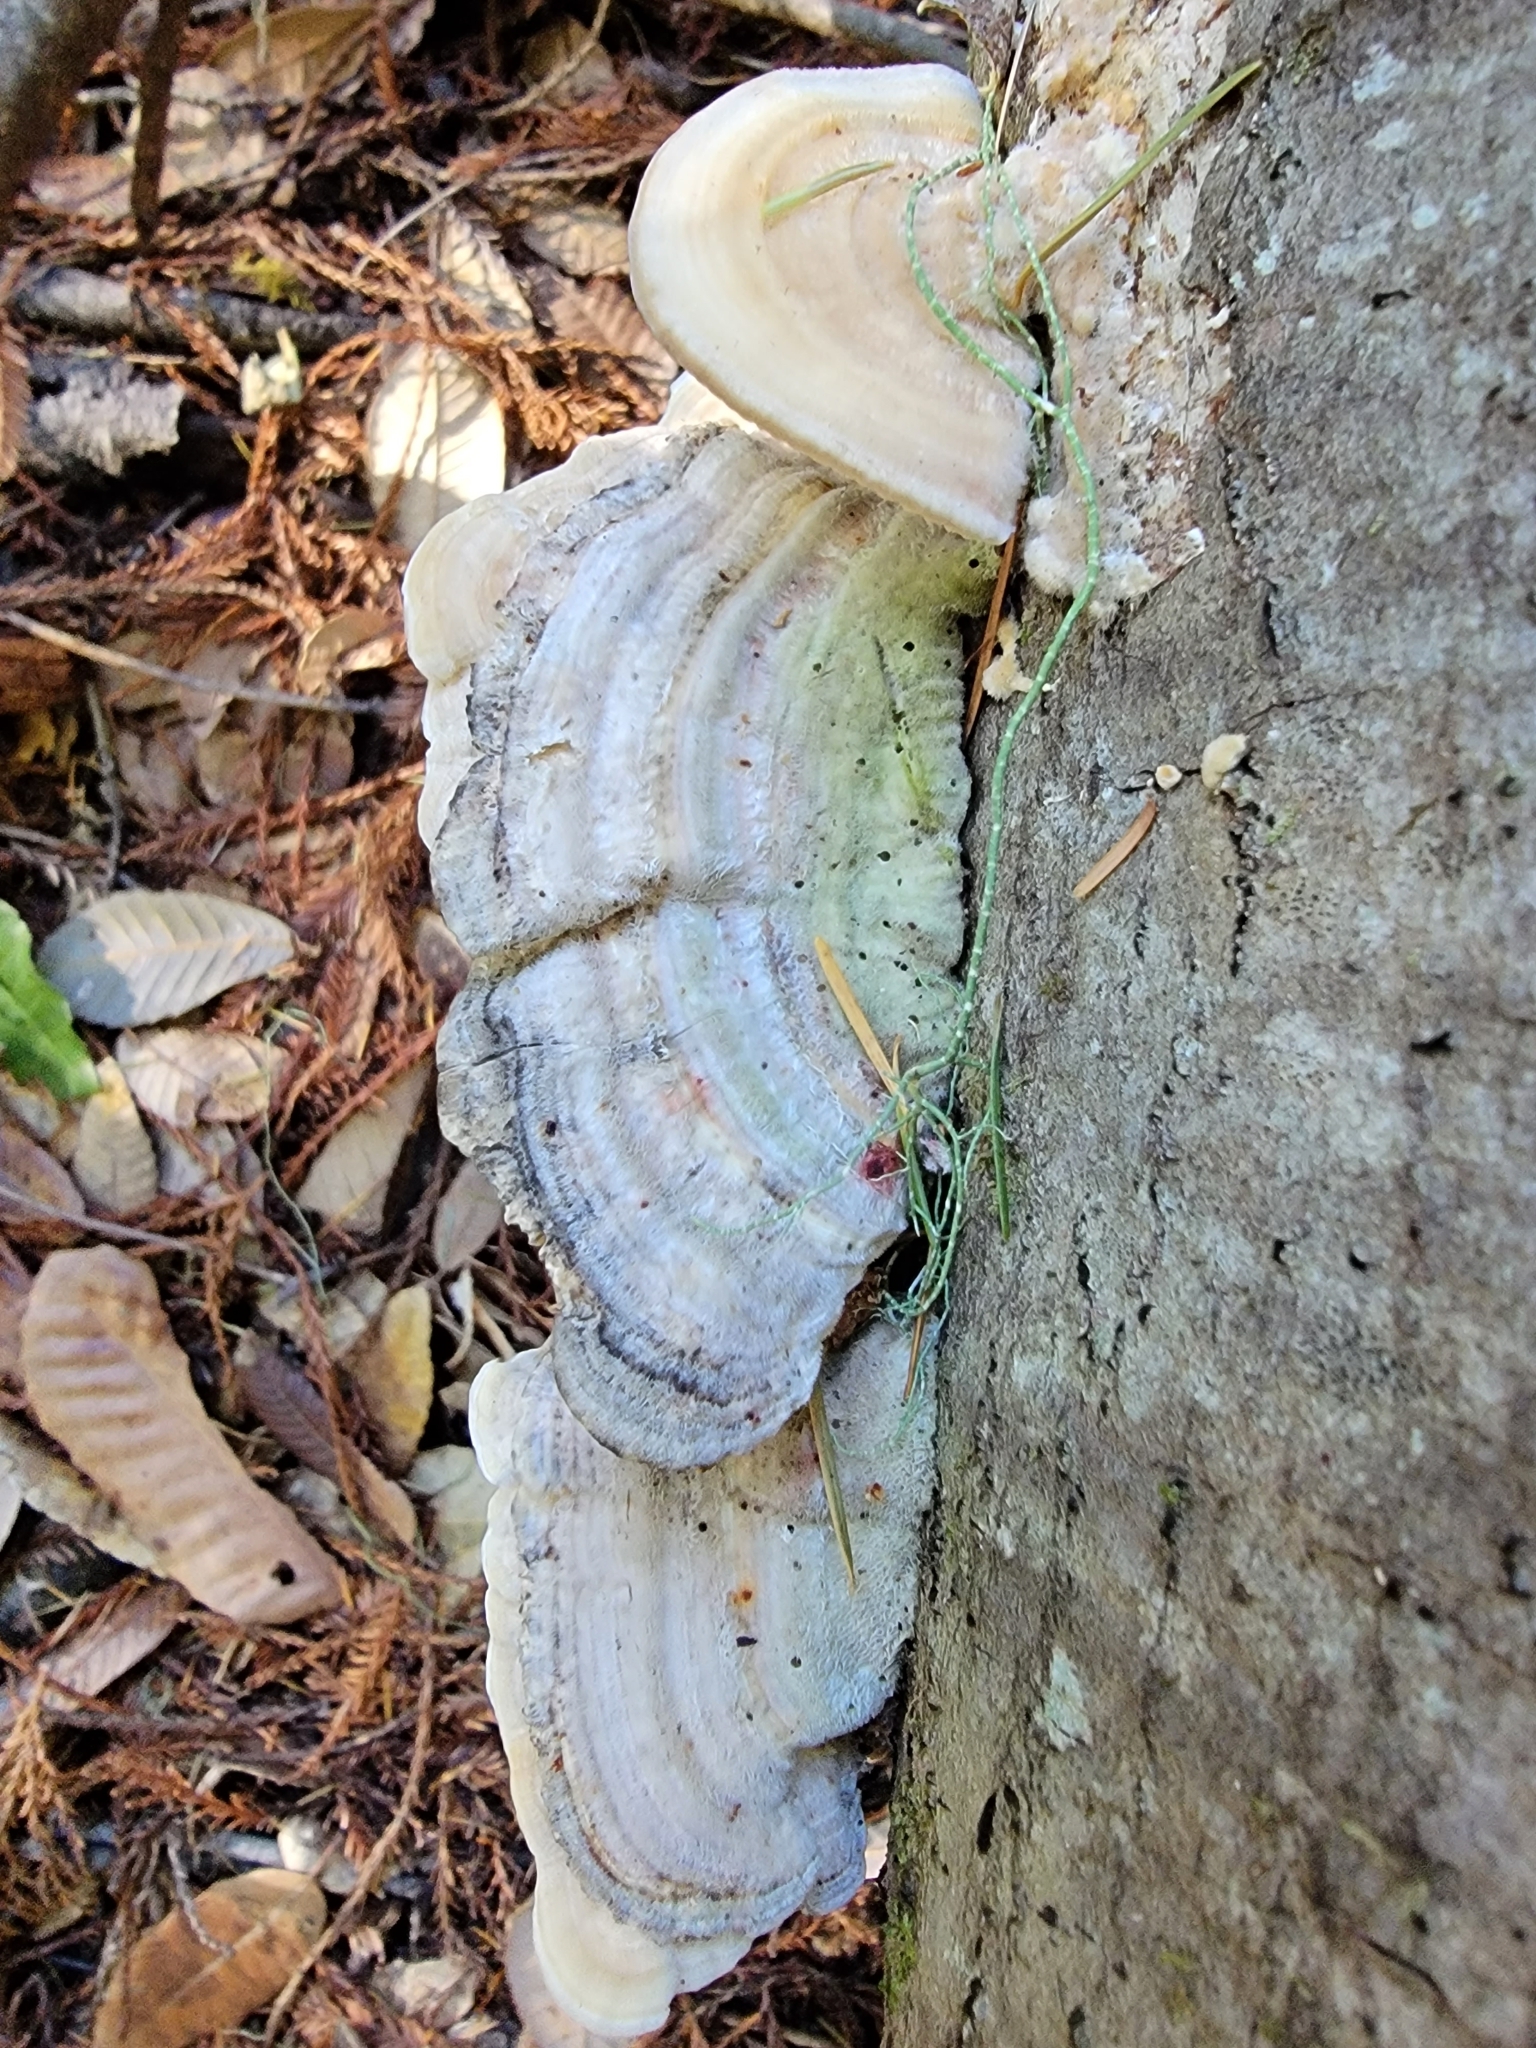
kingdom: Fungi
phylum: Basidiomycota
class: Agaricomycetes
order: Polyporales
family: Polyporaceae
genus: Lenzites
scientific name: Lenzites betulinus
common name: Birch mazegill
